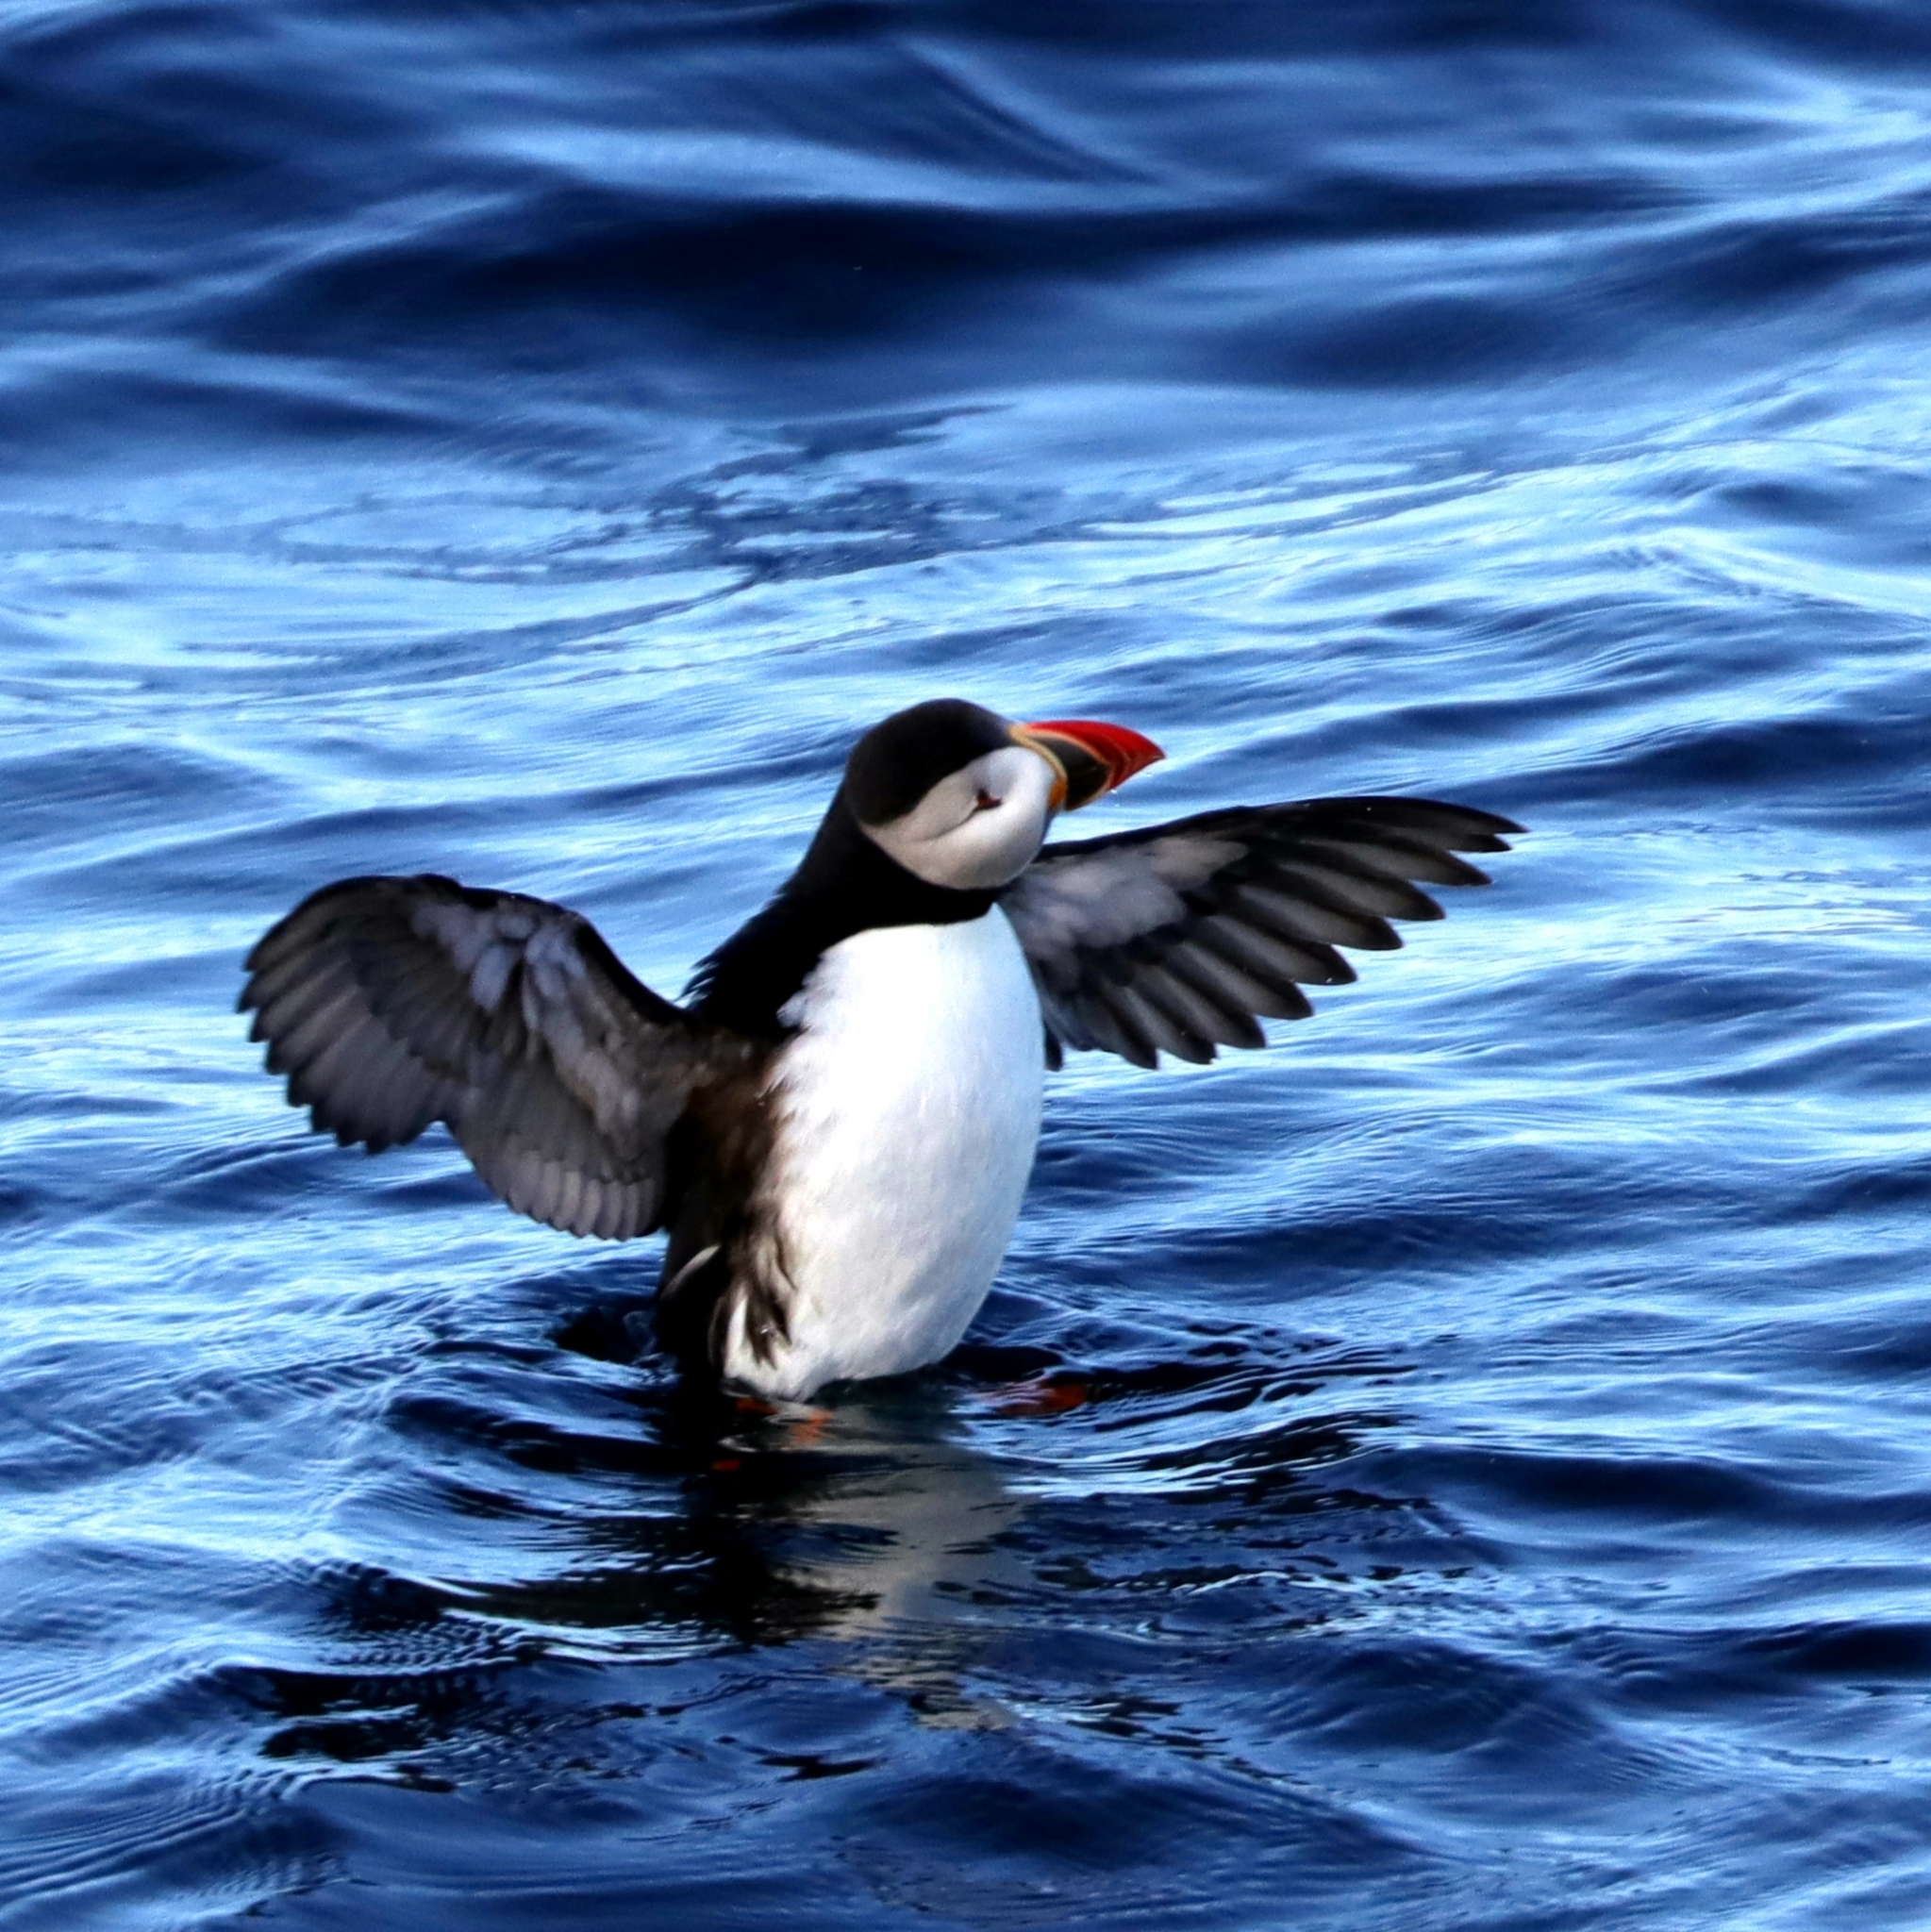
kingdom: Animalia
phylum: Chordata
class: Aves
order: Charadriiformes
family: Alcidae
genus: Fratercula
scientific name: Fratercula arctica
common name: Atlantic puffin
